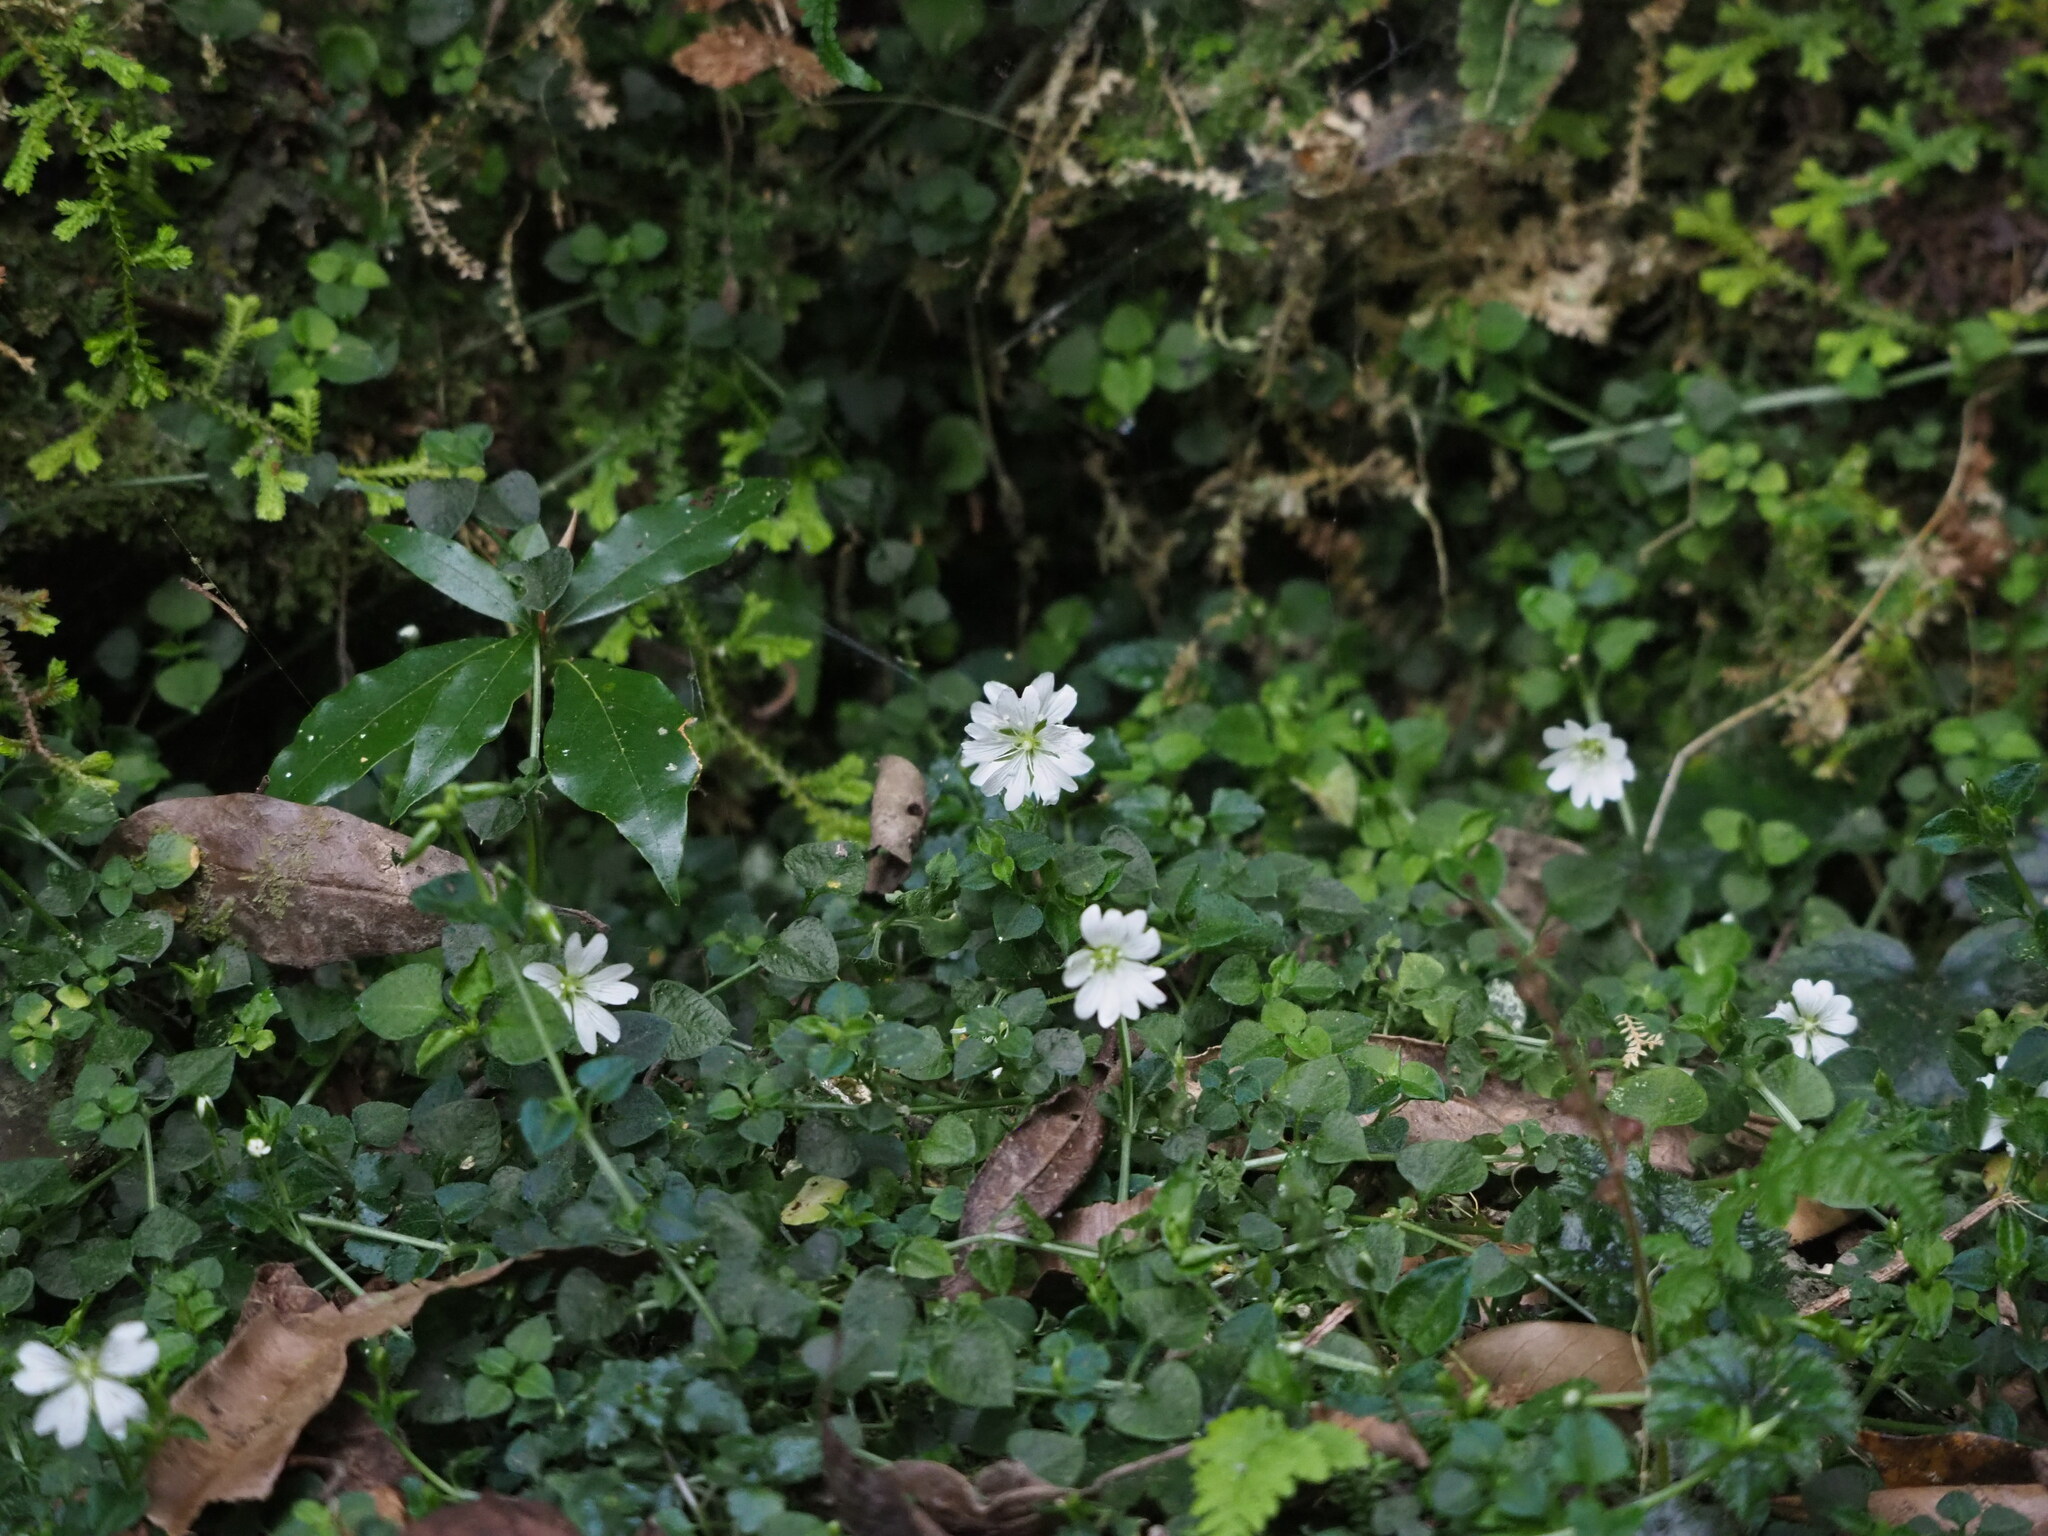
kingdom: Plantae
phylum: Tracheophyta
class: Magnoliopsida
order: Caryophyllales
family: Caryophyllaceae
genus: Nubelaria
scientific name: Nubelaria arisanensis
